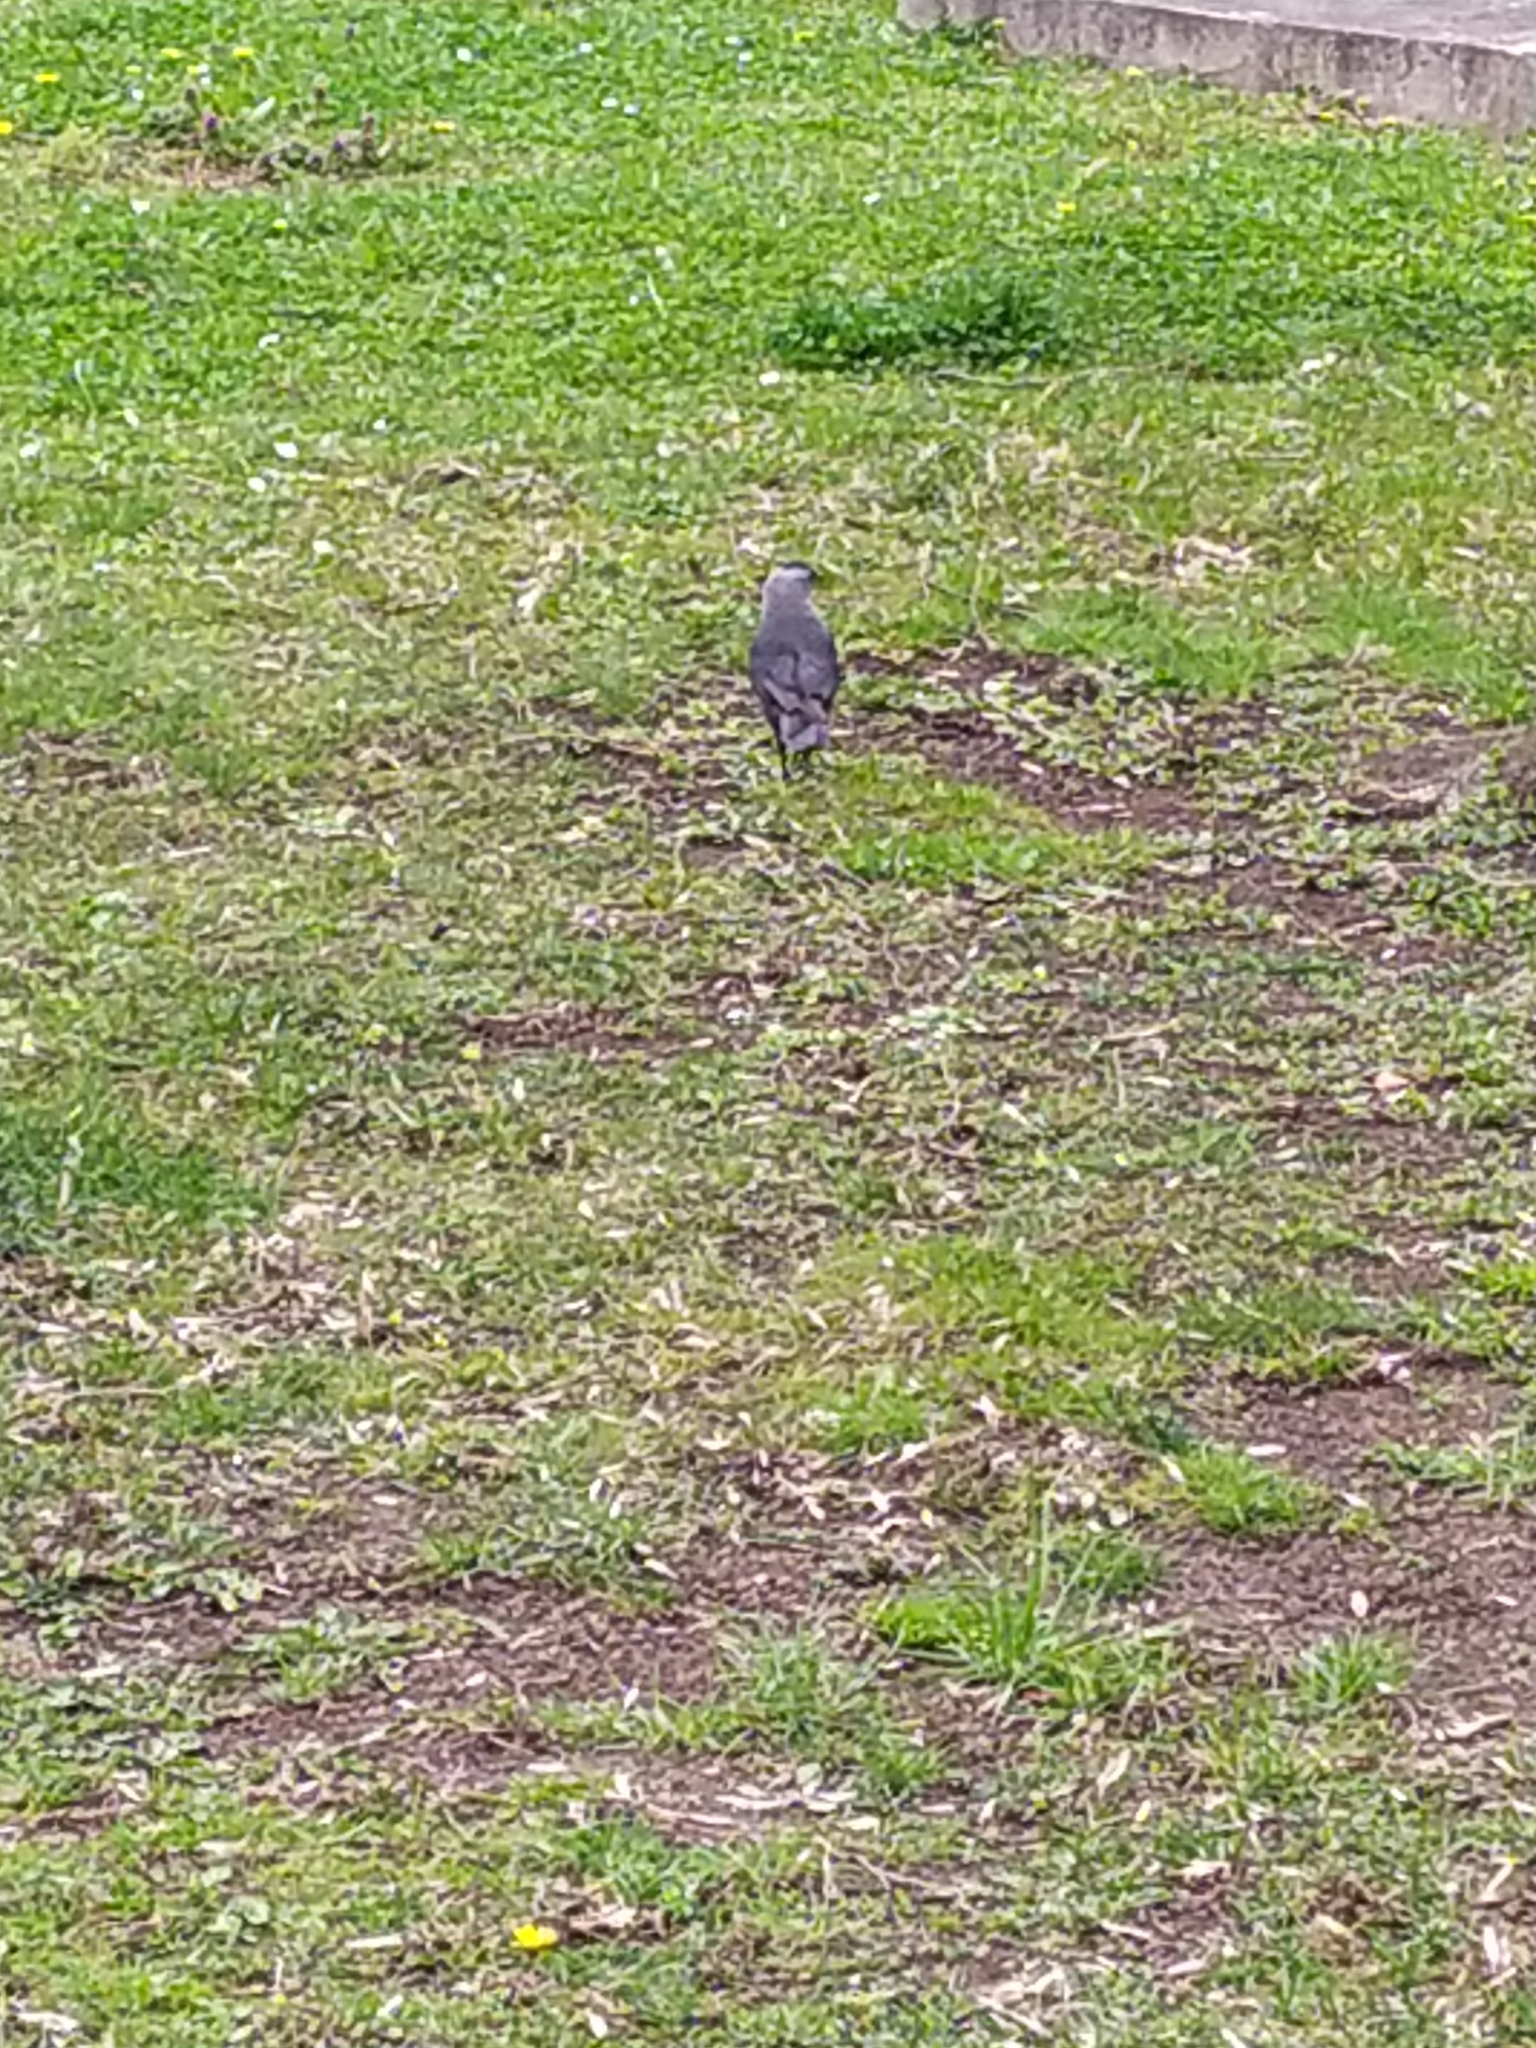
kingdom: Animalia
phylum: Chordata
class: Aves
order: Passeriformes
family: Corvidae
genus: Coloeus
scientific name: Coloeus monedula
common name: Western jackdaw
